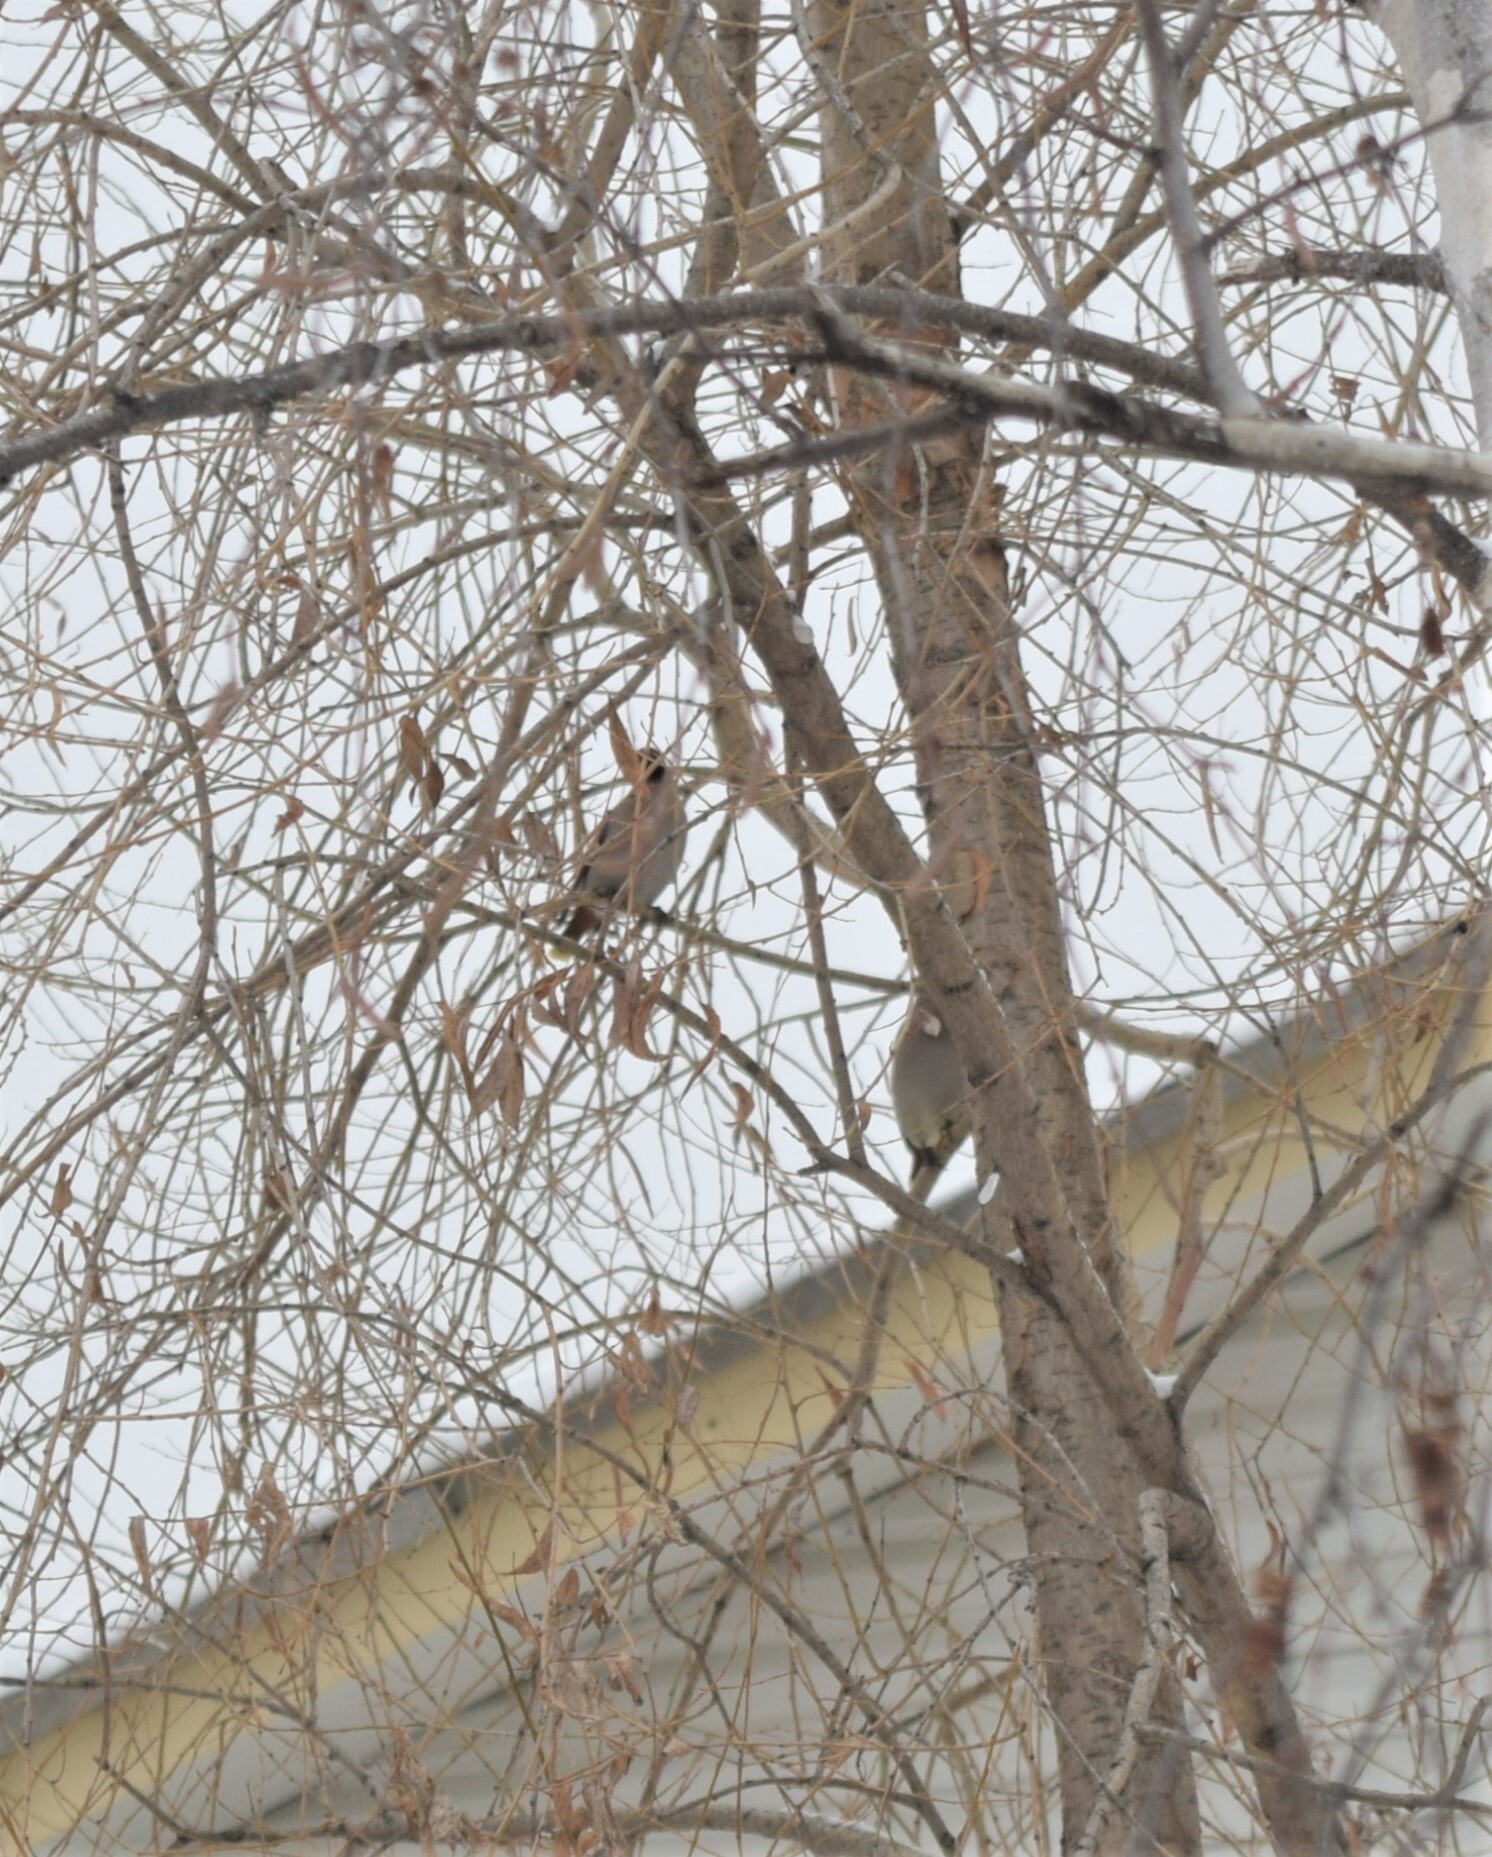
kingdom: Animalia
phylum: Chordata
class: Aves
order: Passeriformes
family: Bombycillidae
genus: Bombycilla
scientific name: Bombycilla garrulus
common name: Bohemian waxwing
